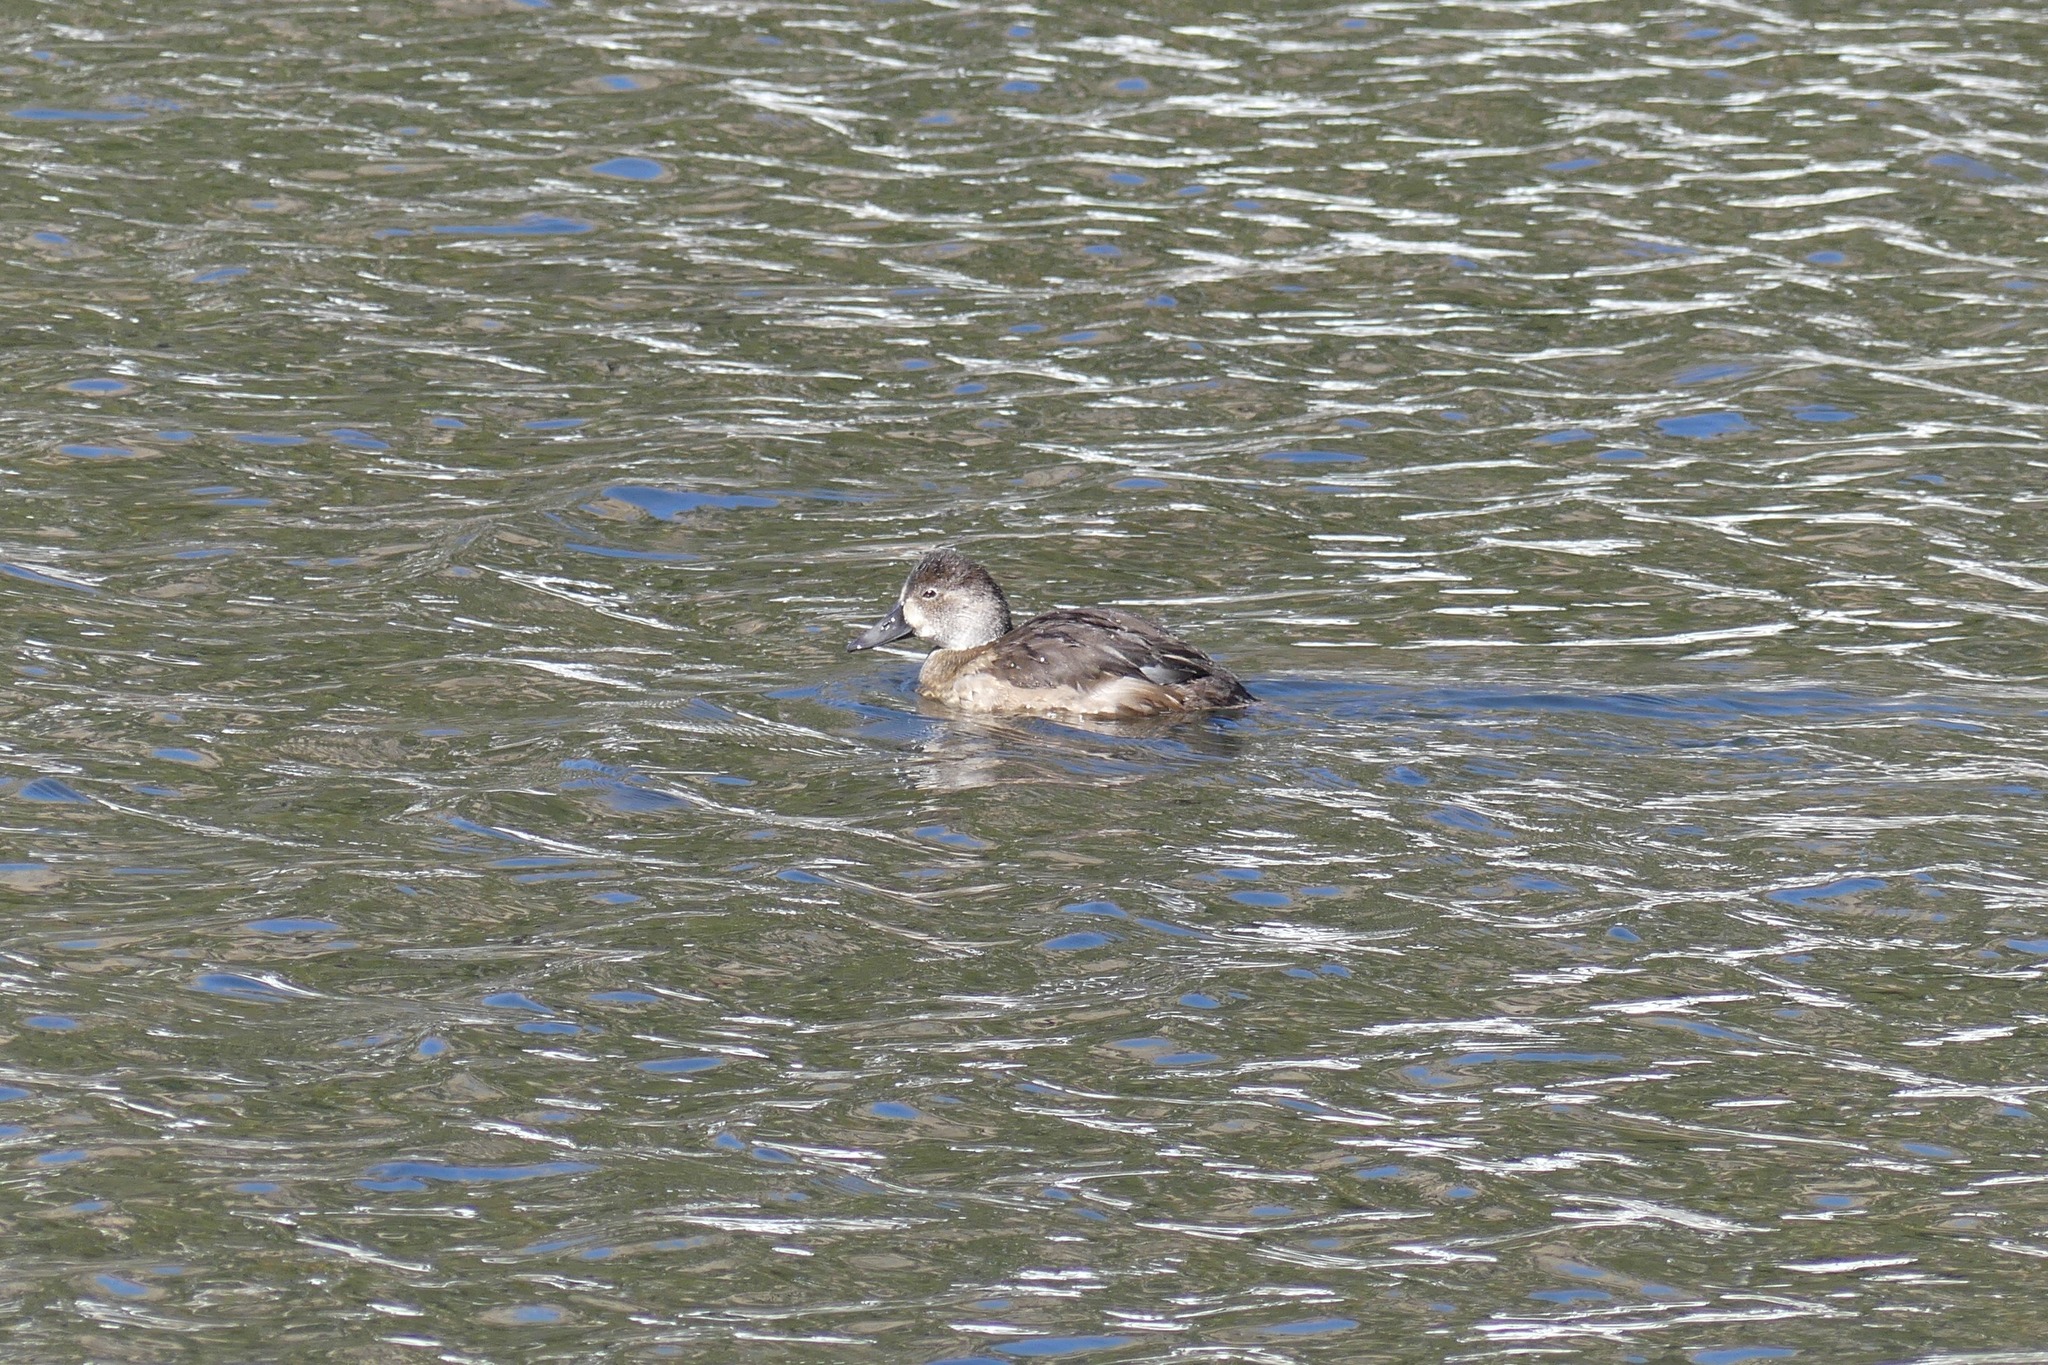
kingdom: Animalia
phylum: Chordata
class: Aves
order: Anseriformes
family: Anatidae
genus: Aythya
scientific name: Aythya collaris
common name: Ring-necked duck
